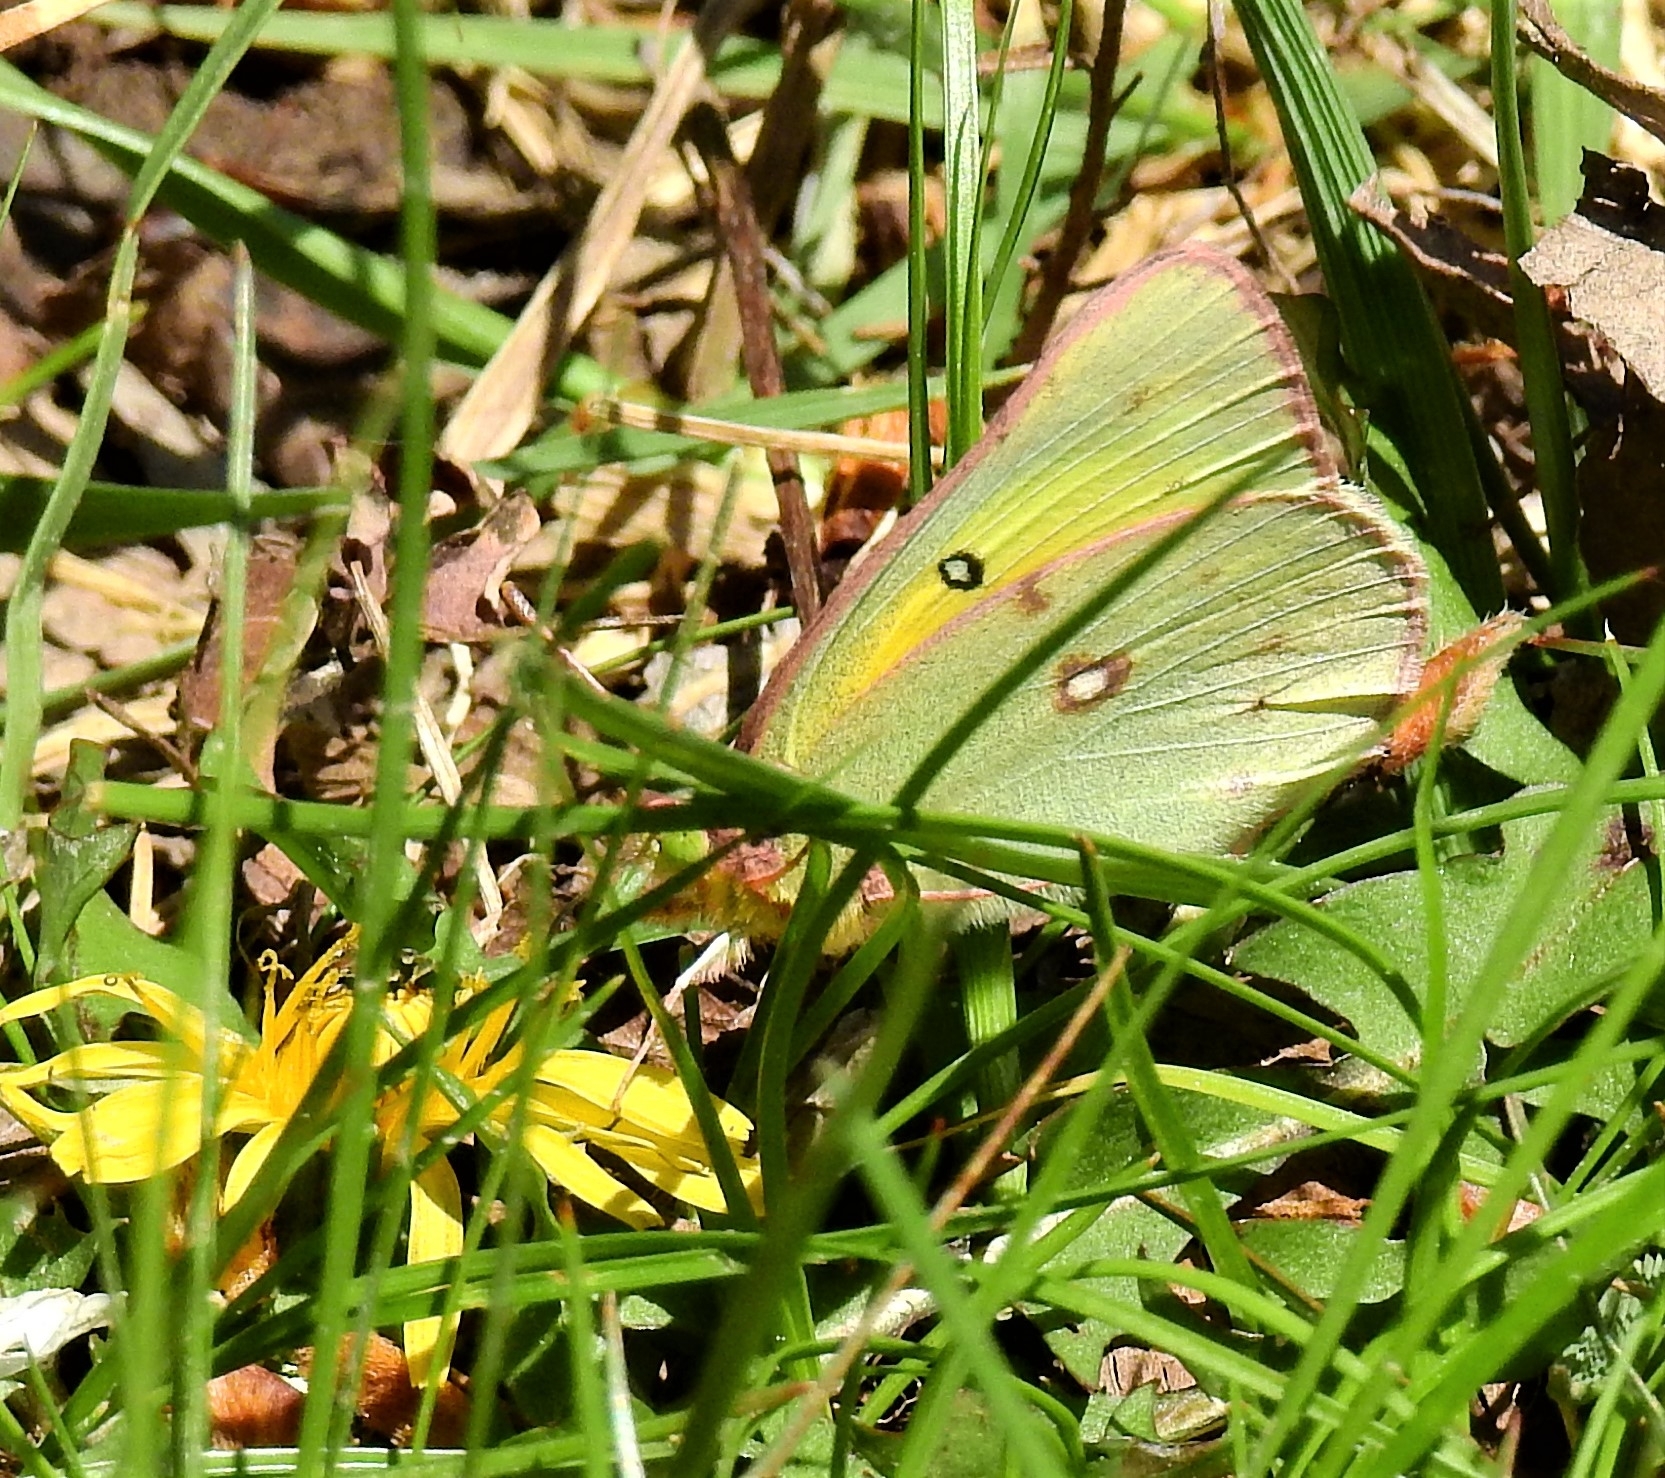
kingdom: Animalia
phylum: Arthropoda
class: Insecta
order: Lepidoptera
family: Pieridae
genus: Colias
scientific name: Colias eurytheme
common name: Alfalfa butterfly
